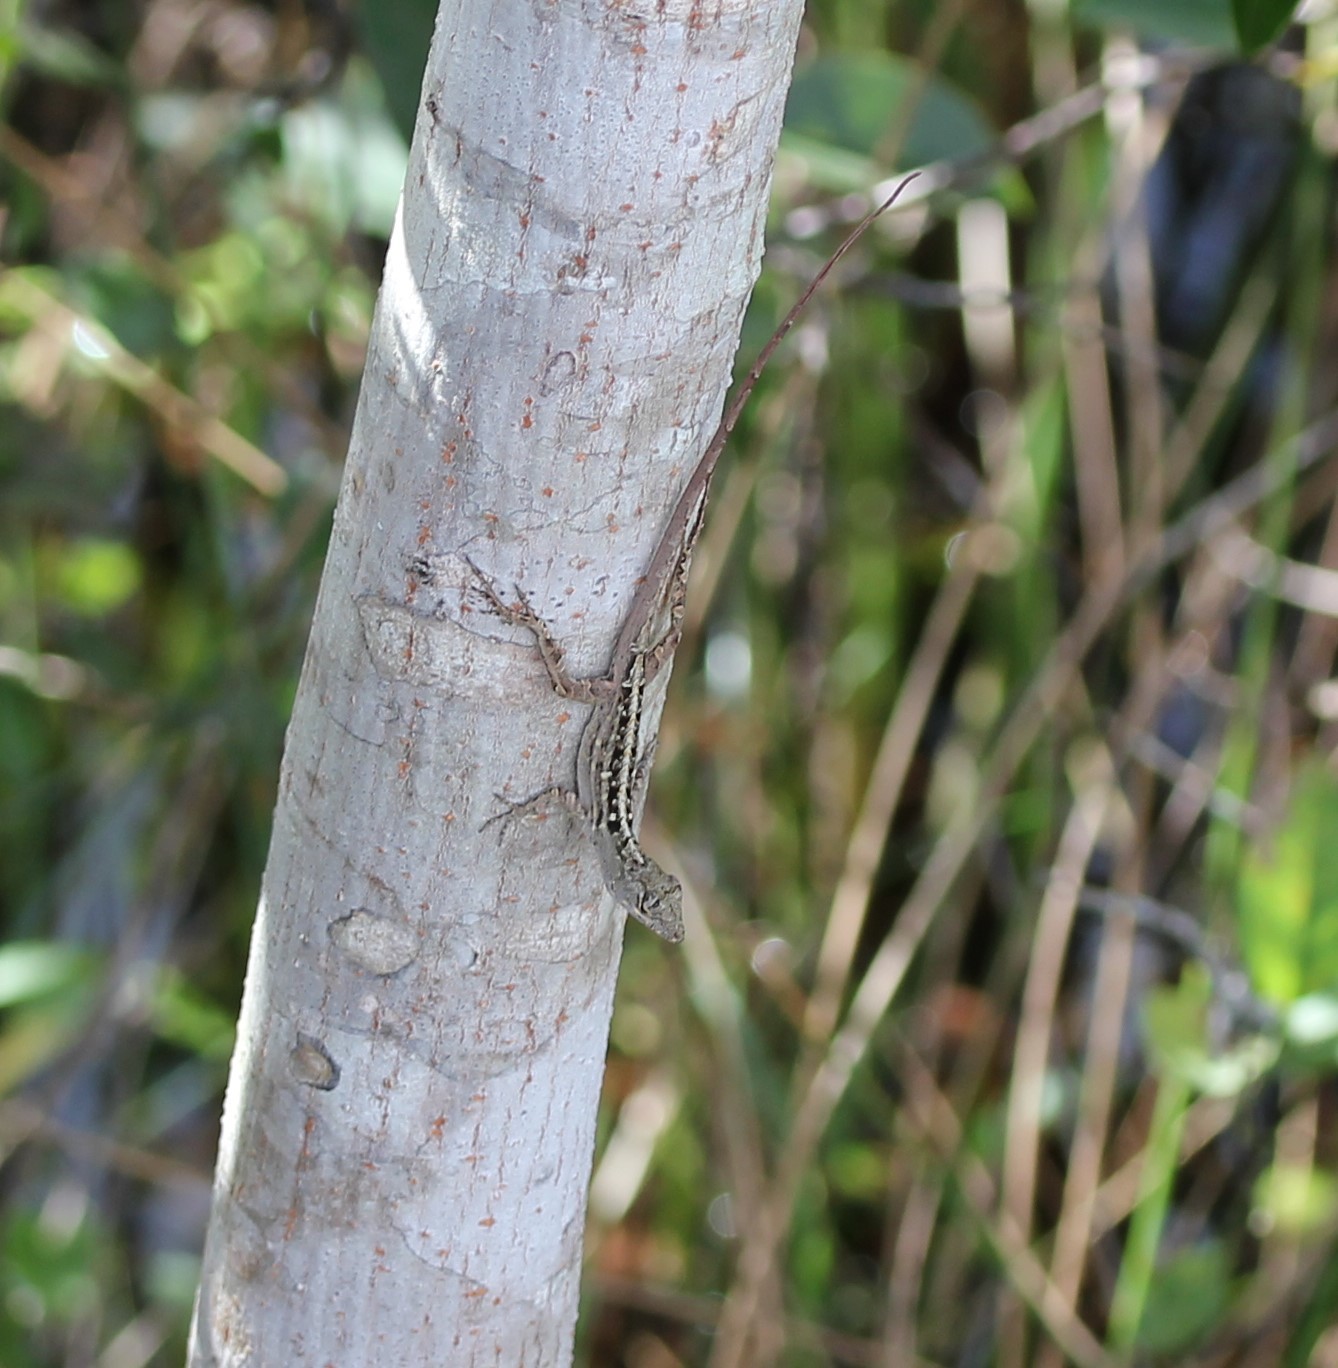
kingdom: Animalia
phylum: Chordata
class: Squamata
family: Dactyloidae
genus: Anolis
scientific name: Anolis sagrei
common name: Brown anole
